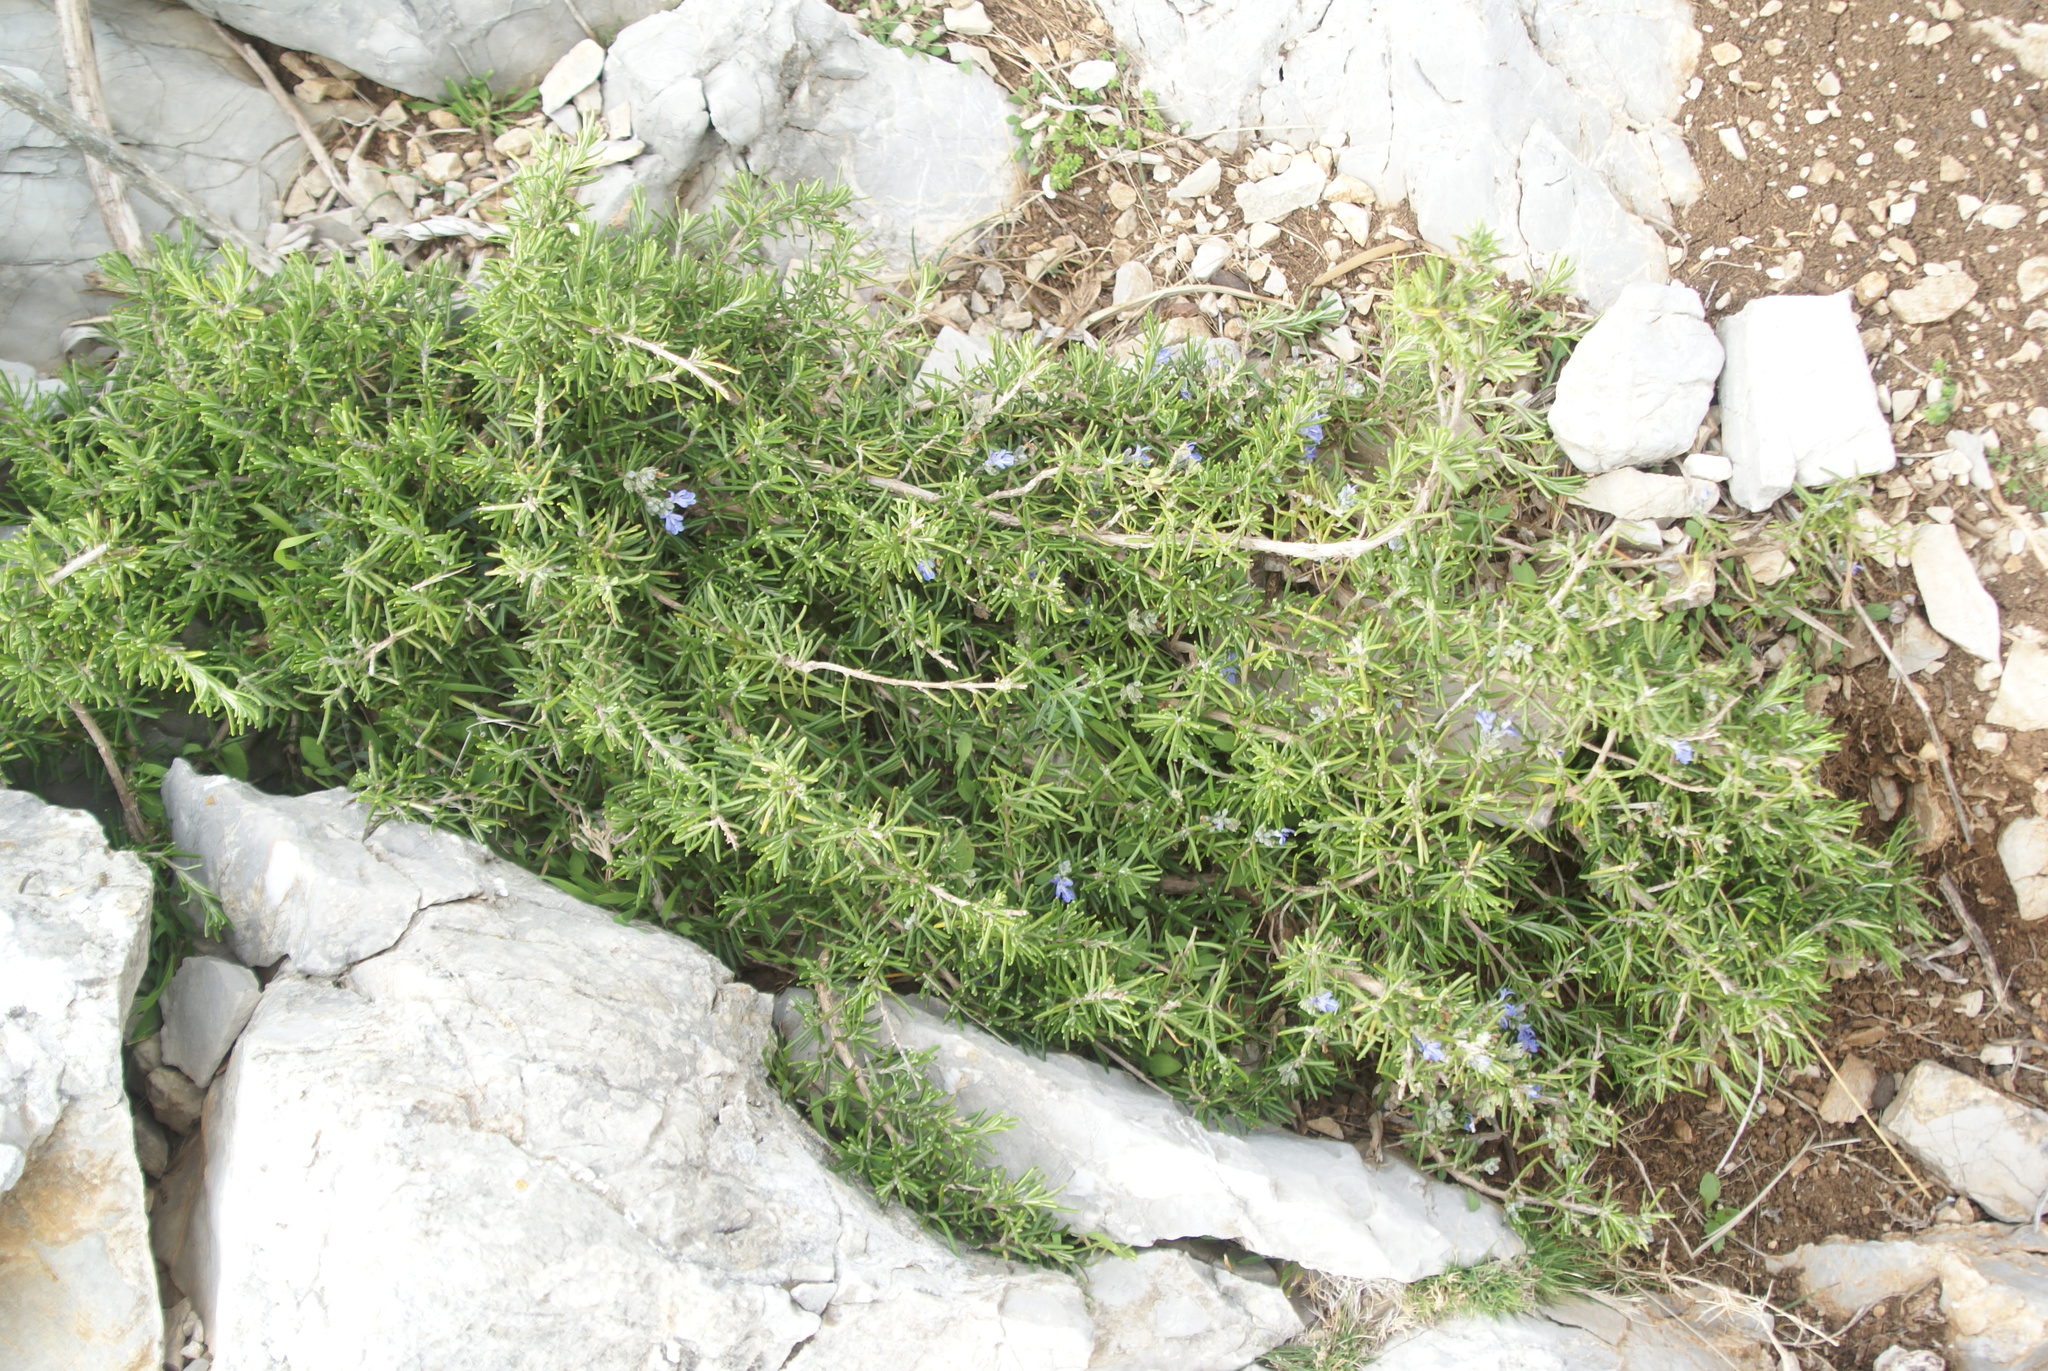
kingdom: Plantae
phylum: Tracheophyta
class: Magnoliopsida
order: Lamiales
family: Lamiaceae
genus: Salvia
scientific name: Salvia rosmarinus
